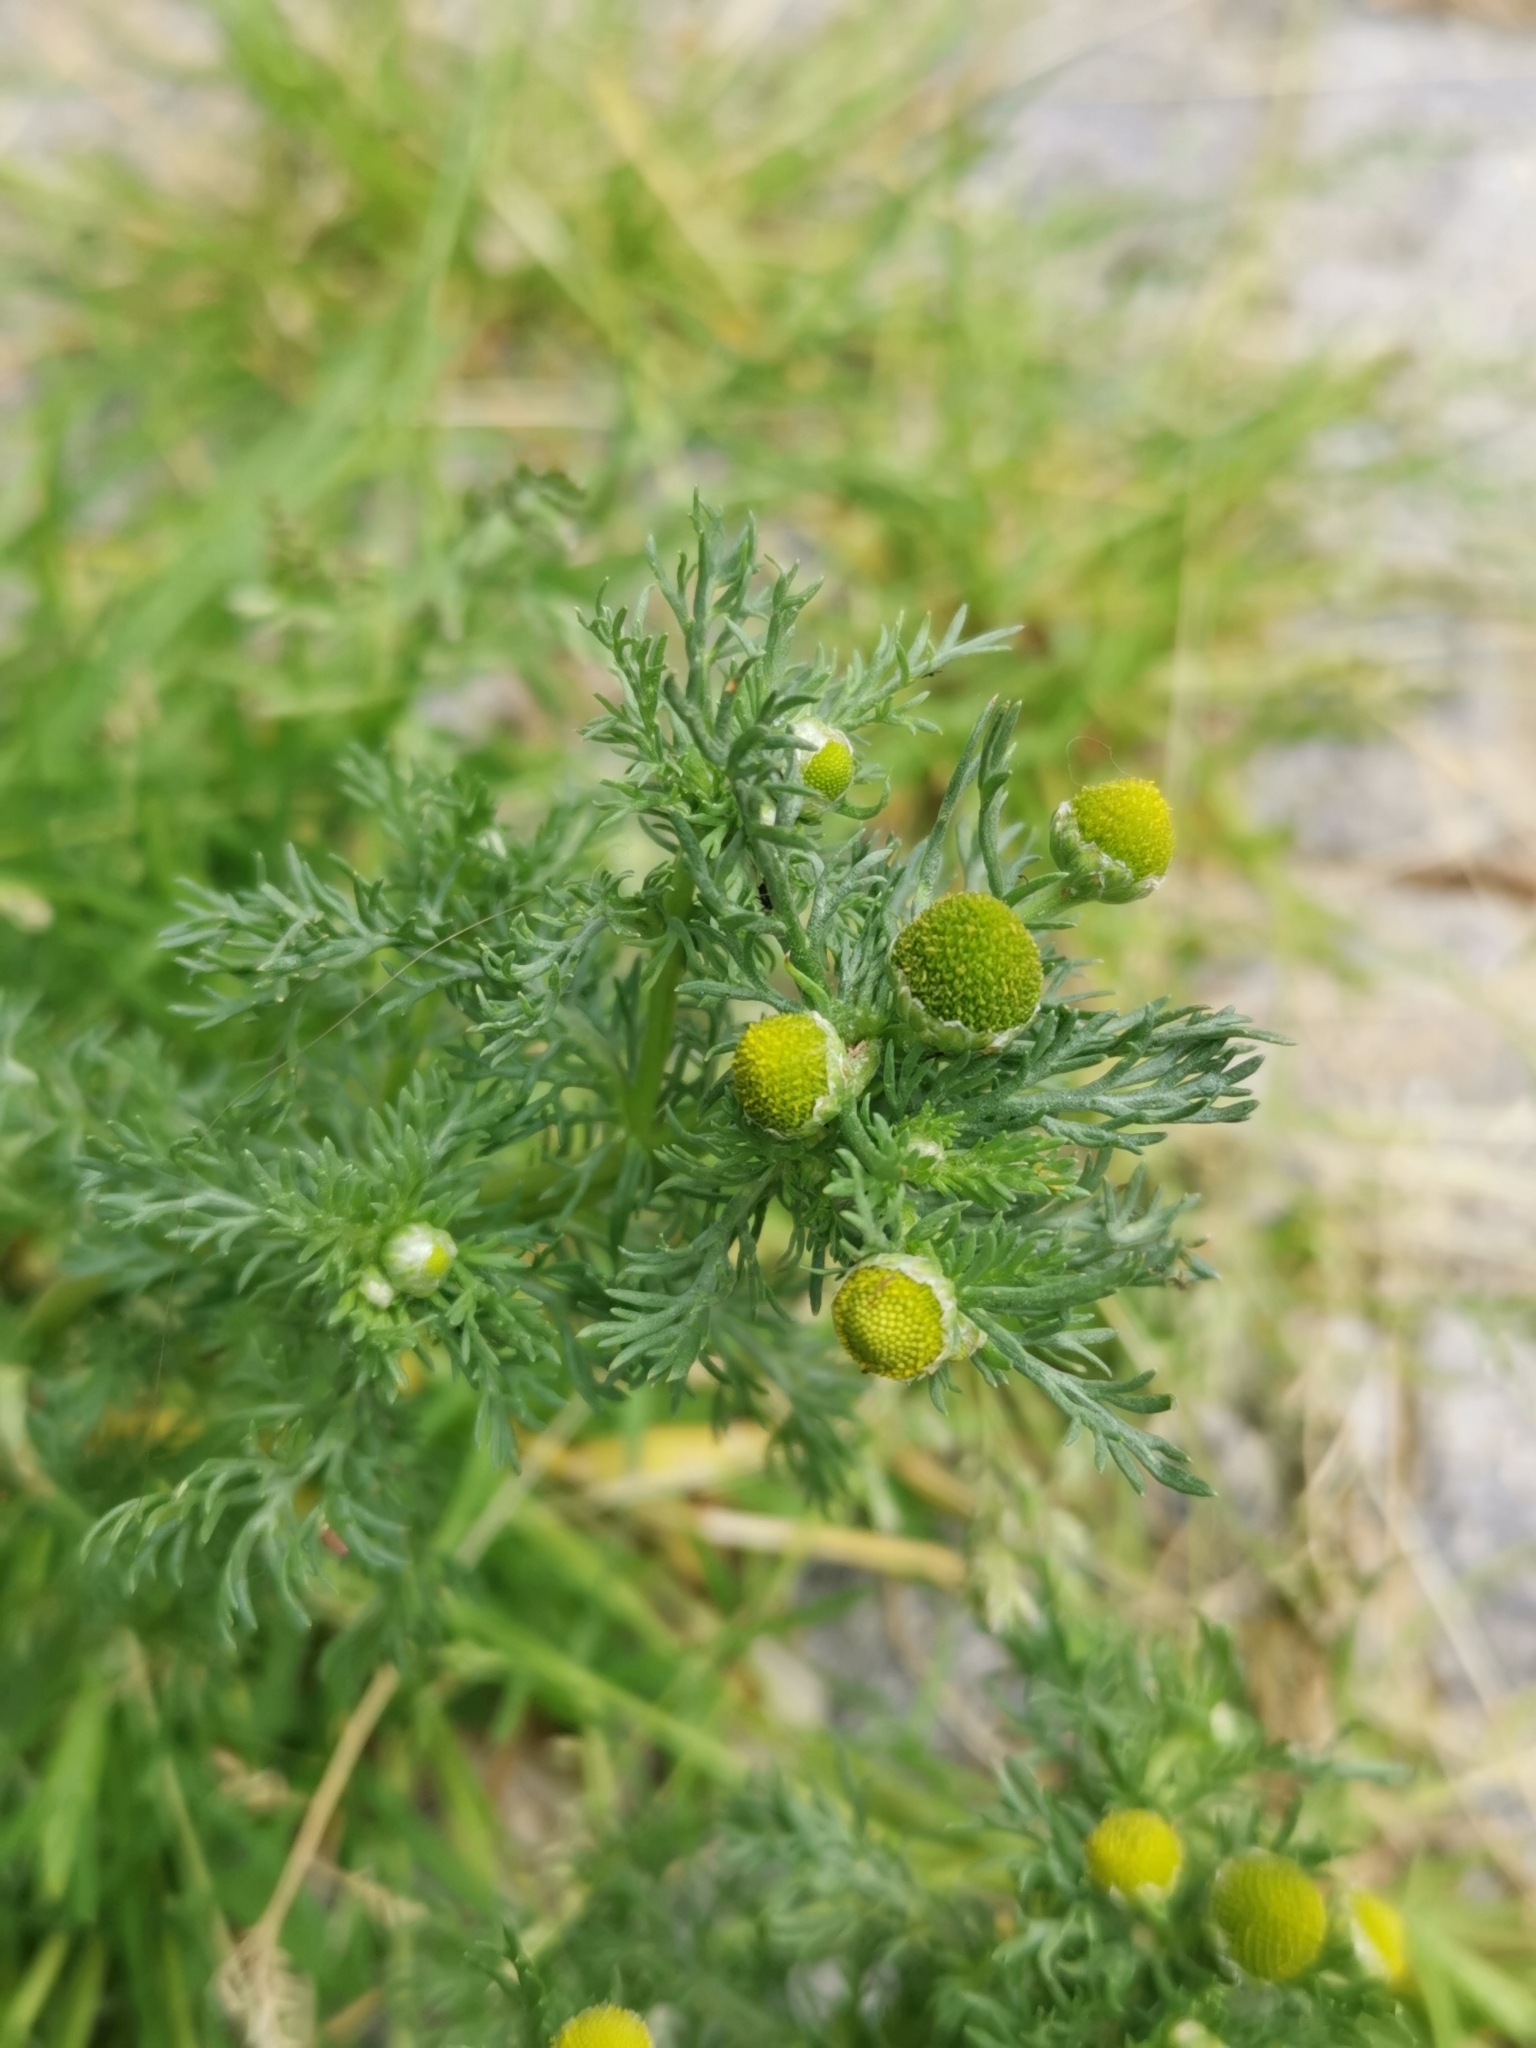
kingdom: Plantae
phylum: Tracheophyta
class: Magnoliopsida
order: Asterales
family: Asteraceae
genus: Matricaria
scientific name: Matricaria discoidea
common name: Disc mayweed
